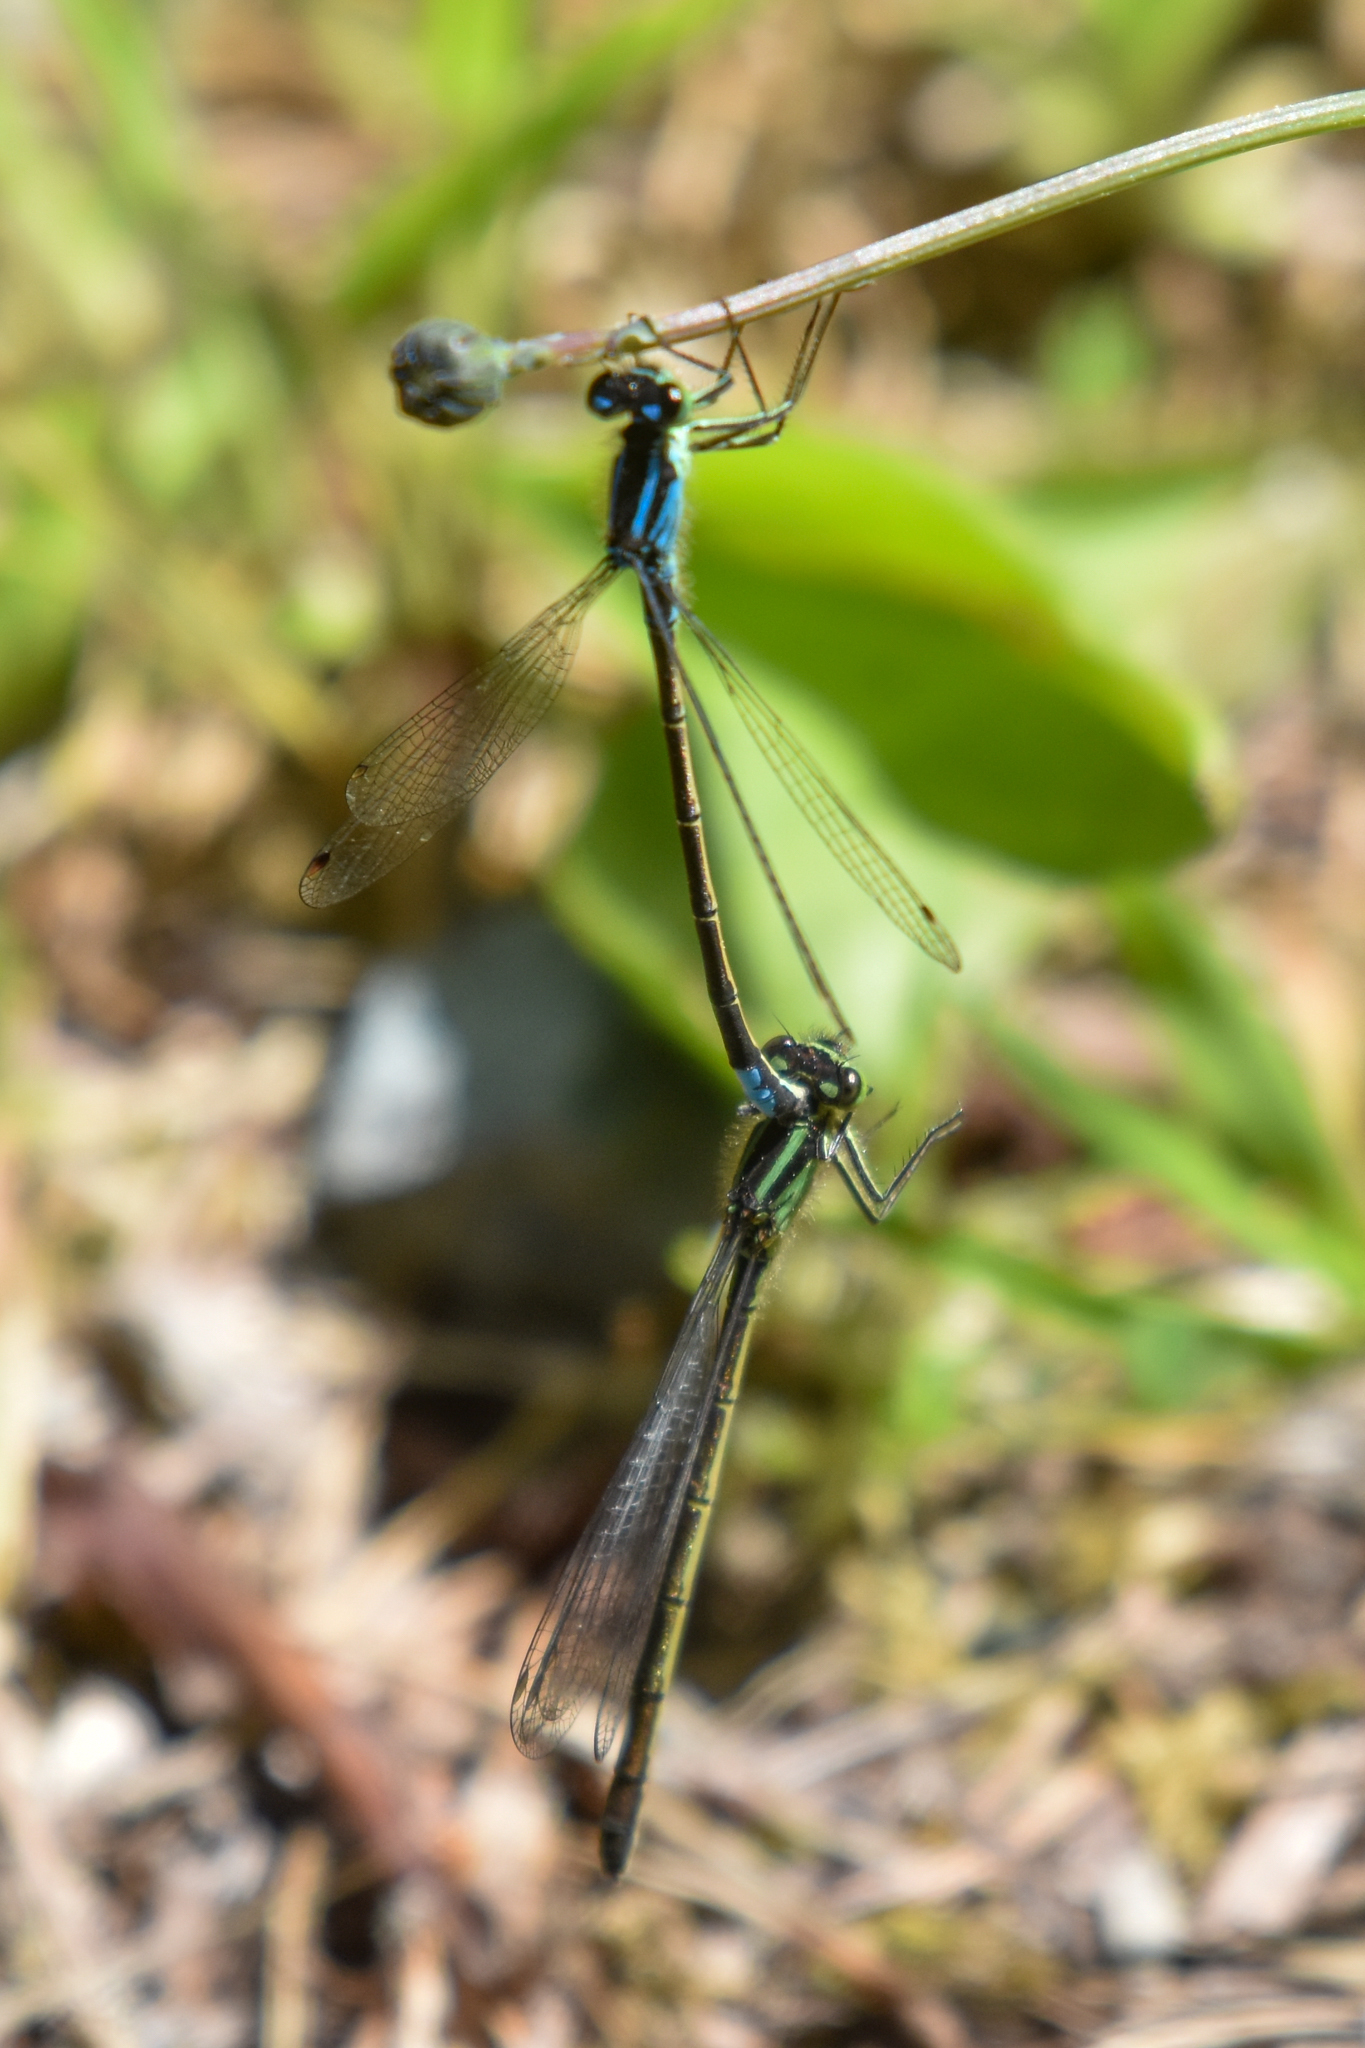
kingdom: Animalia
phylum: Arthropoda
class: Insecta
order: Odonata
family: Coenagrionidae
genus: Ischnura
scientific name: Ischnura erratica
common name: Swift forktail
